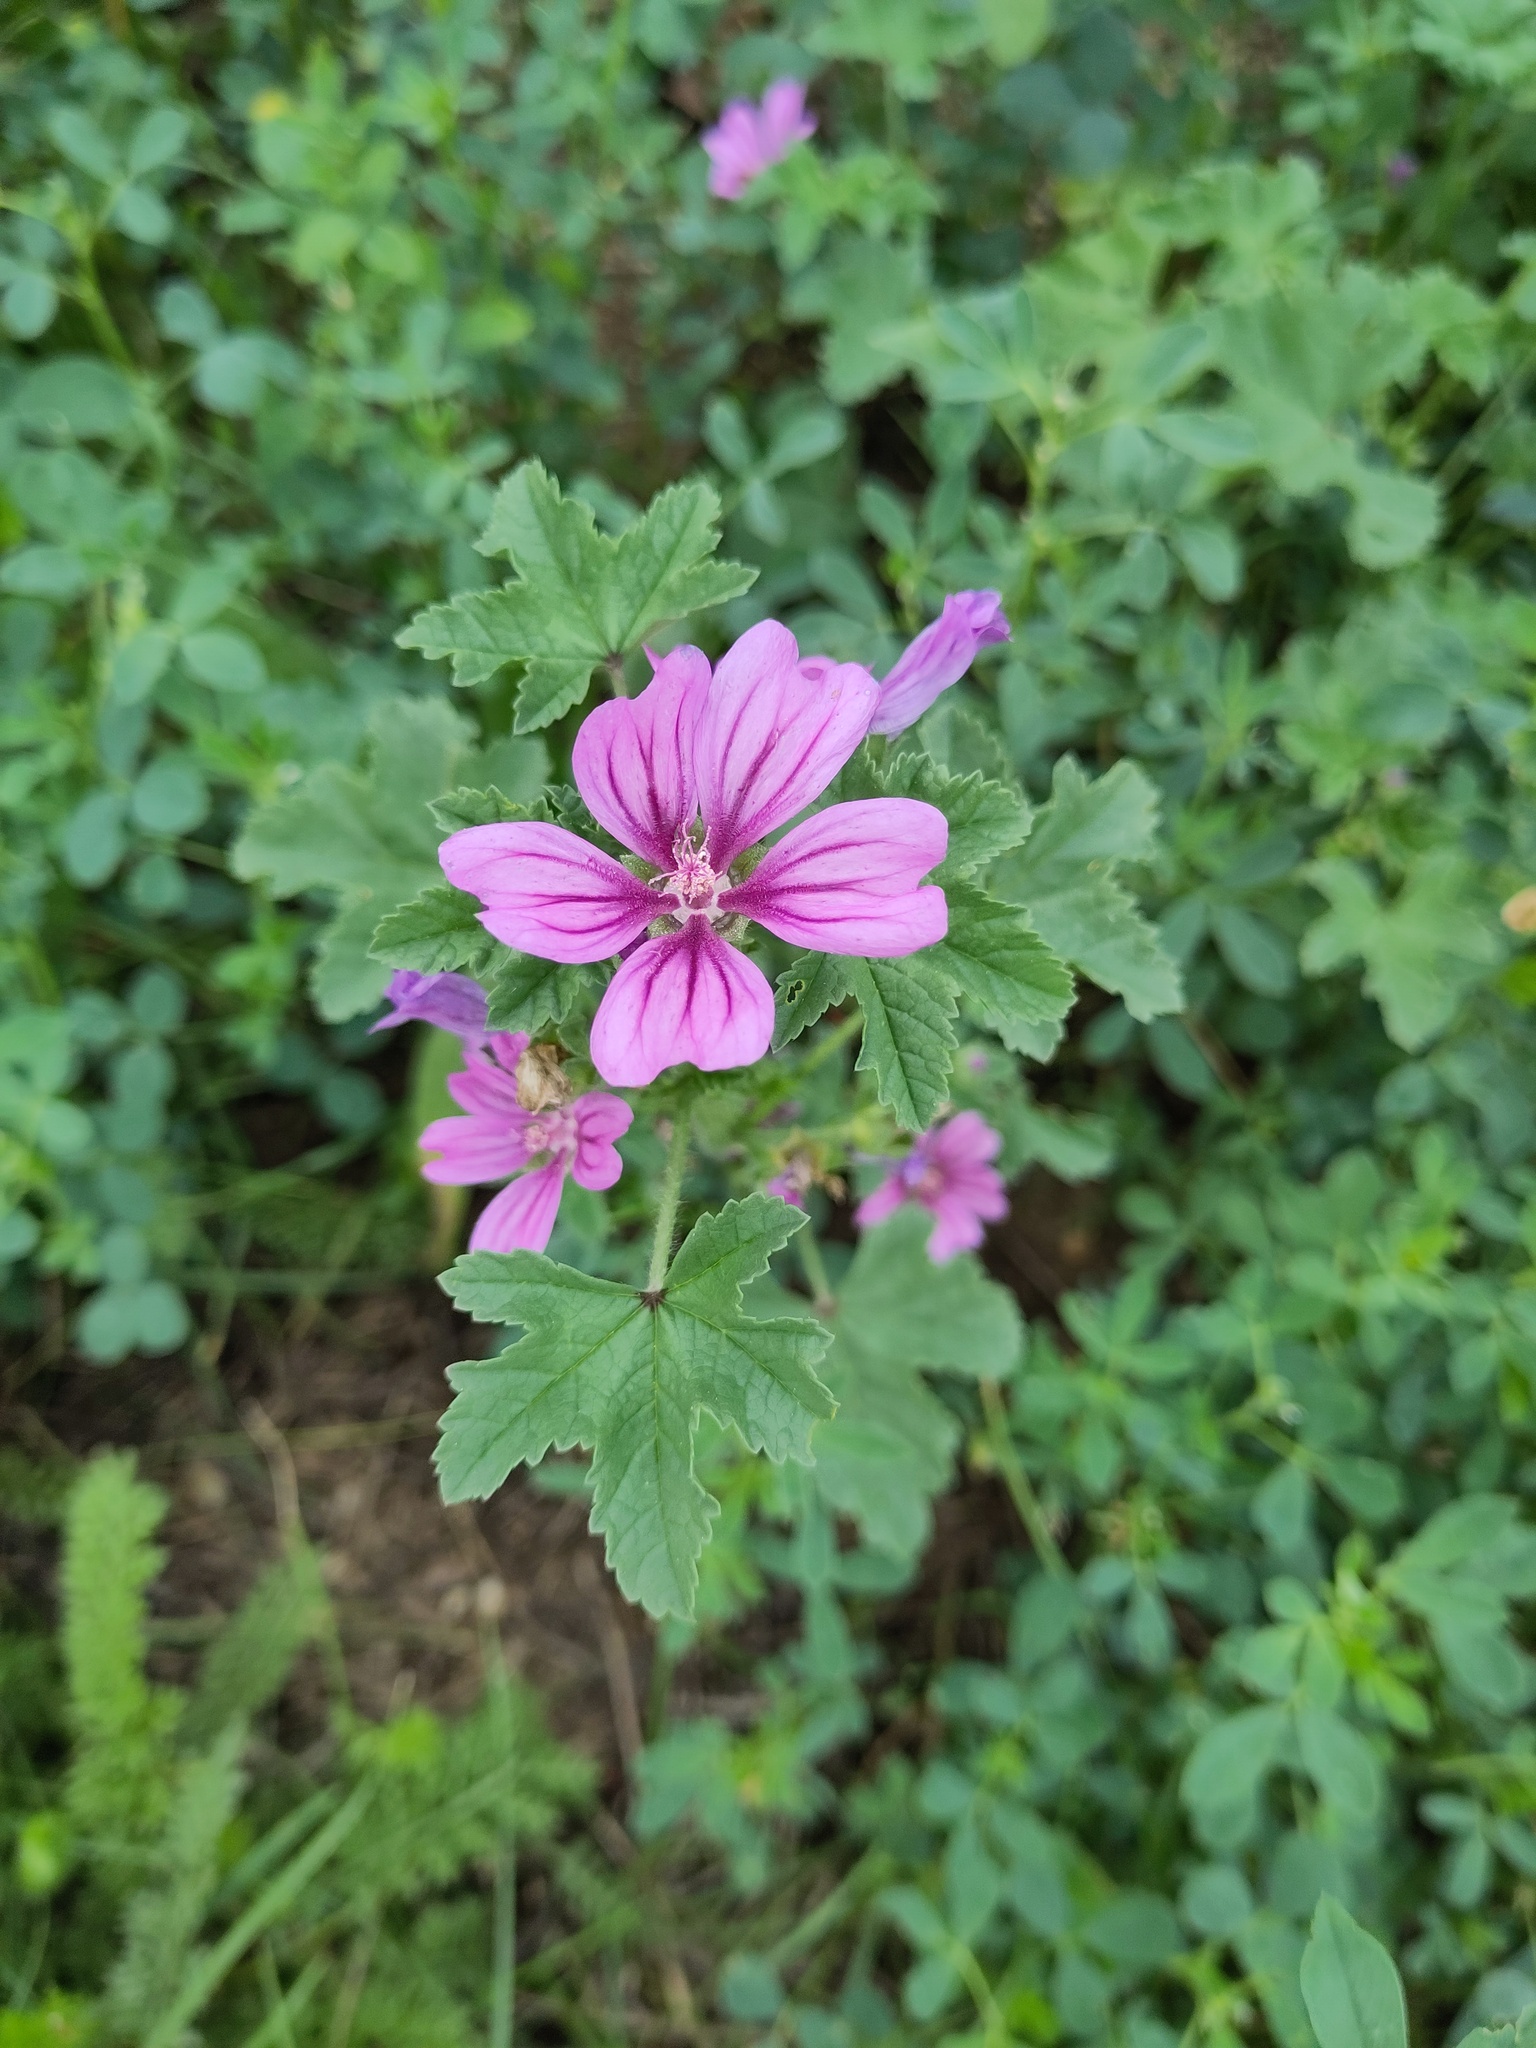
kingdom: Plantae
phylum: Tracheophyta
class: Magnoliopsida
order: Malvales
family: Malvaceae
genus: Malva
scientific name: Malva sylvestris
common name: Common mallow
